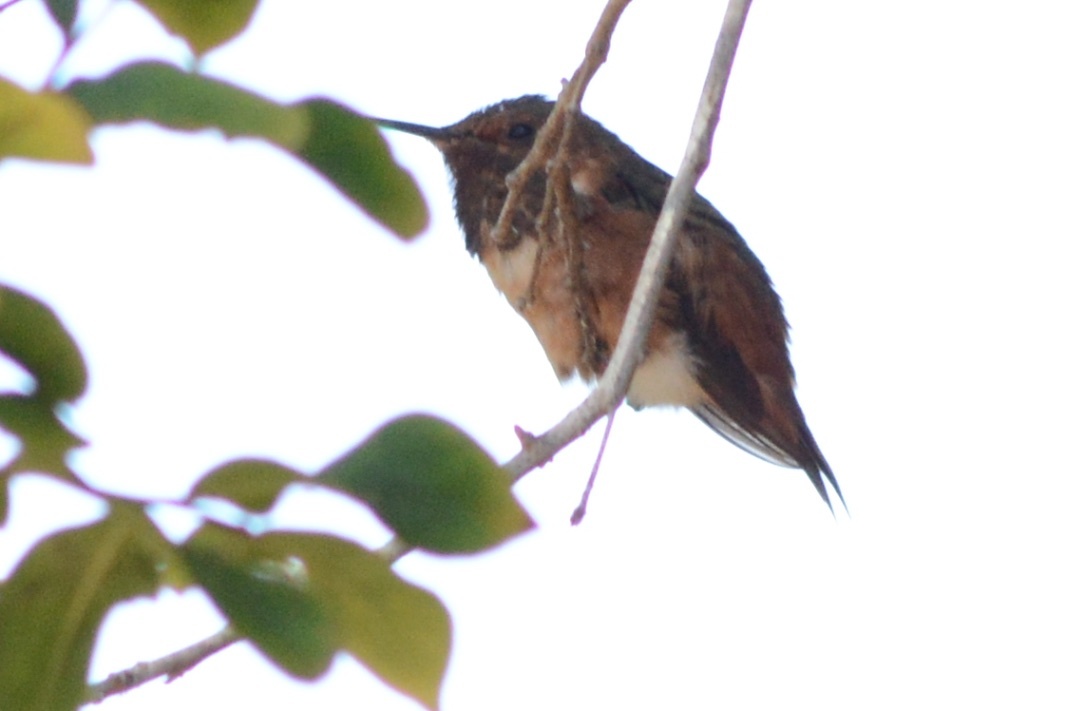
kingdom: Animalia
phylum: Chordata
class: Aves
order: Apodiformes
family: Trochilidae
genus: Selasphorus
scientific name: Selasphorus sasin
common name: Allen's hummingbird
